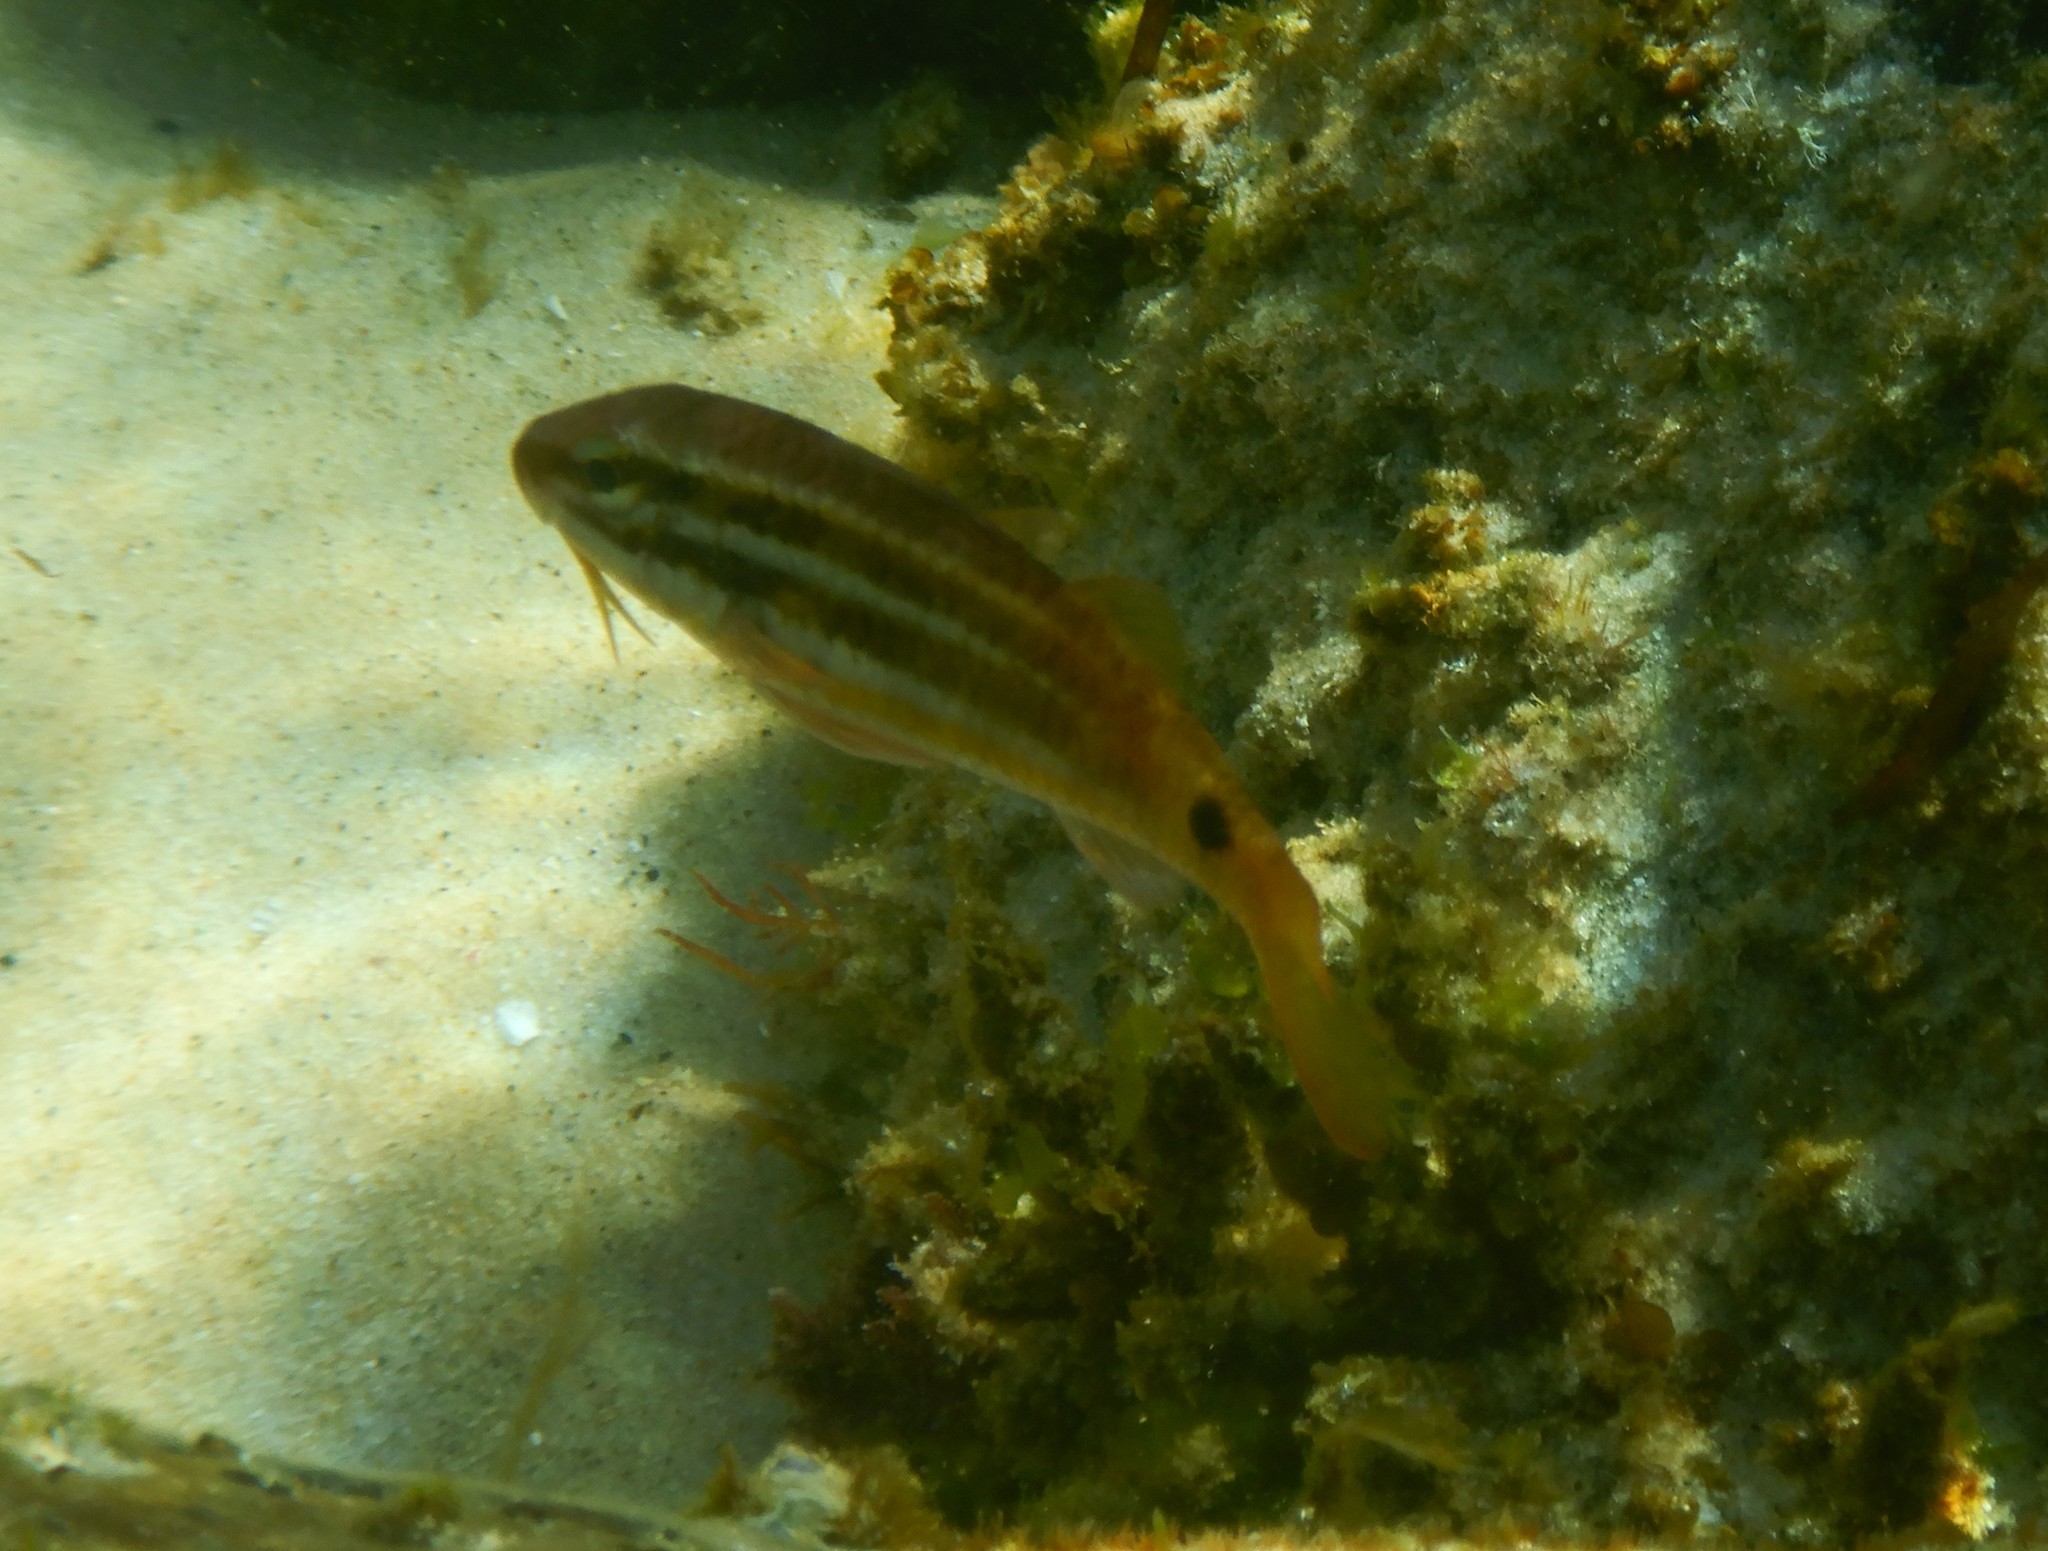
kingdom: Animalia
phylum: Chordata
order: Perciformes
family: Mullidae
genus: Parupeneus
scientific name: Parupeneus spilurus
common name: Blackspot goatfish
